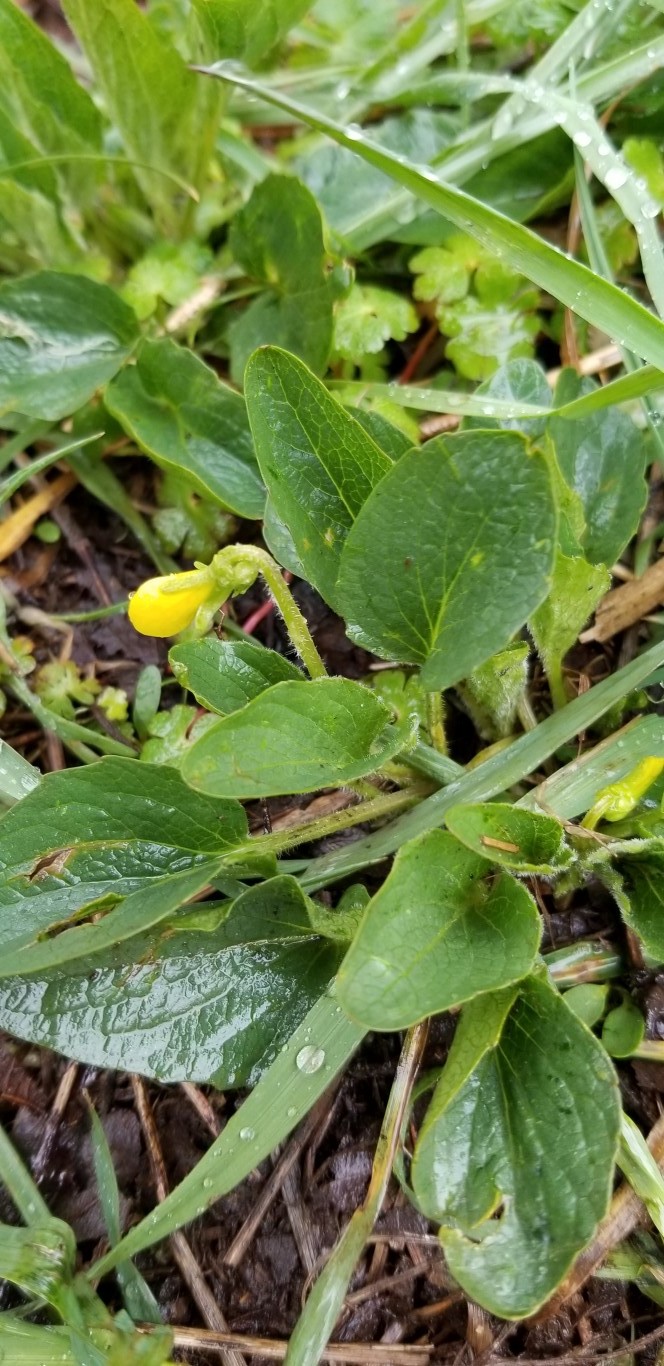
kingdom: Plantae
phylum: Tracheophyta
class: Magnoliopsida
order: Malpighiales
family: Violaceae
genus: Viola
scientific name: Viola praemorsa
